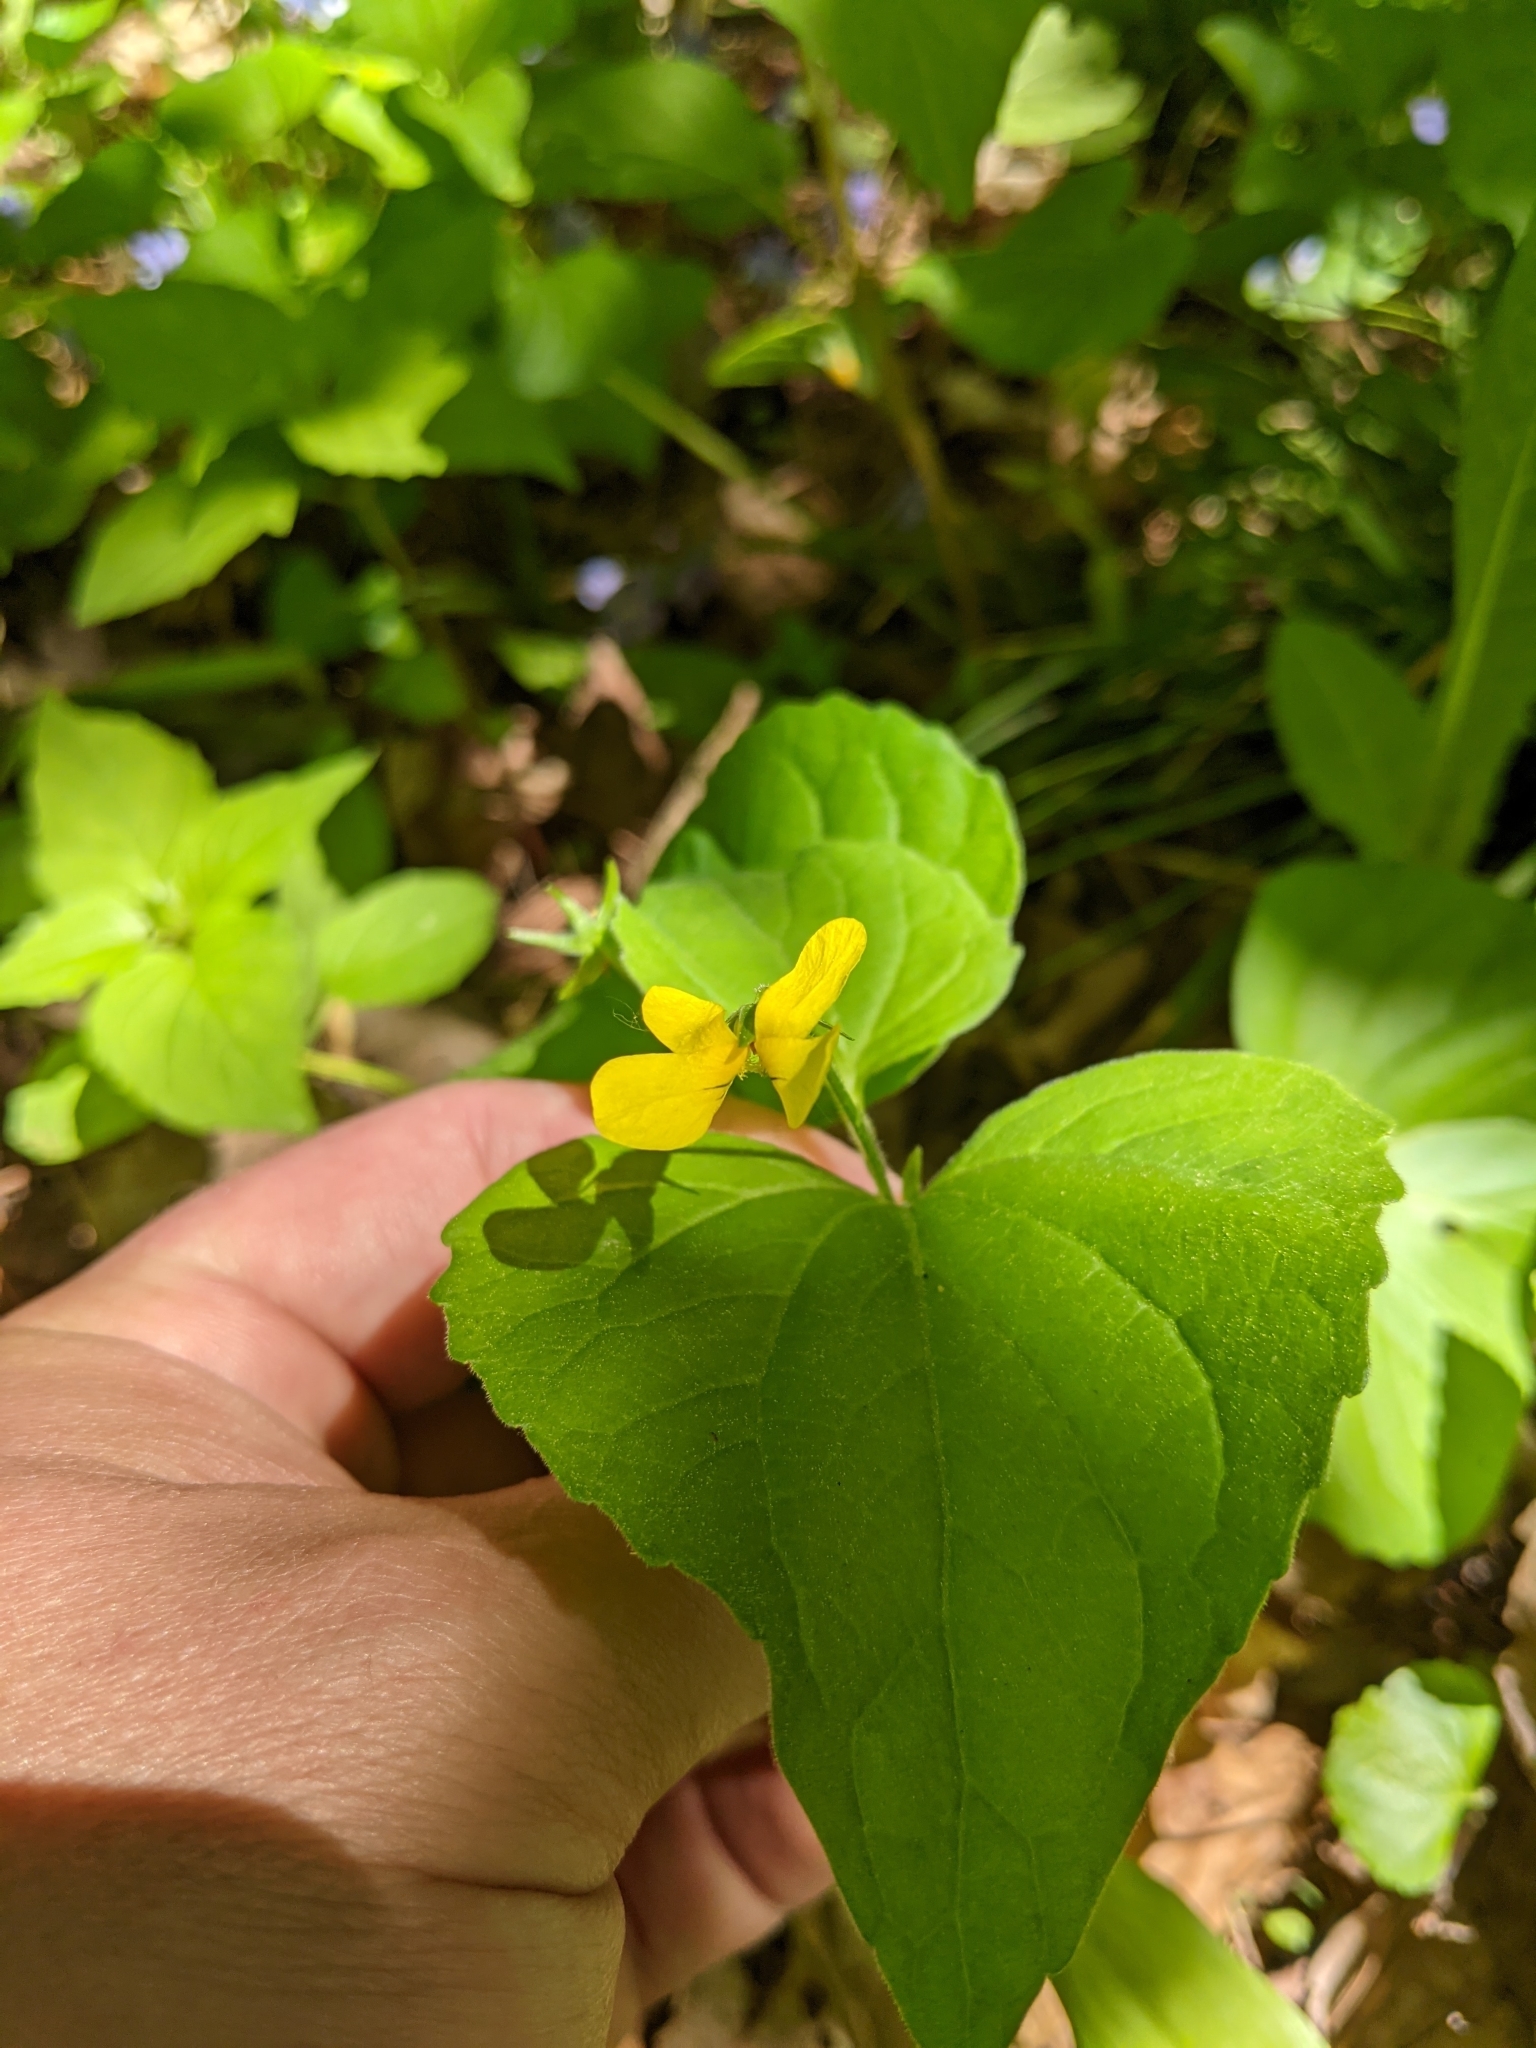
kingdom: Plantae
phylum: Tracheophyta
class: Magnoliopsida
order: Malpighiales
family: Violaceae
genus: Viola
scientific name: Viola eriocarpa
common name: Smooth yellow violet
